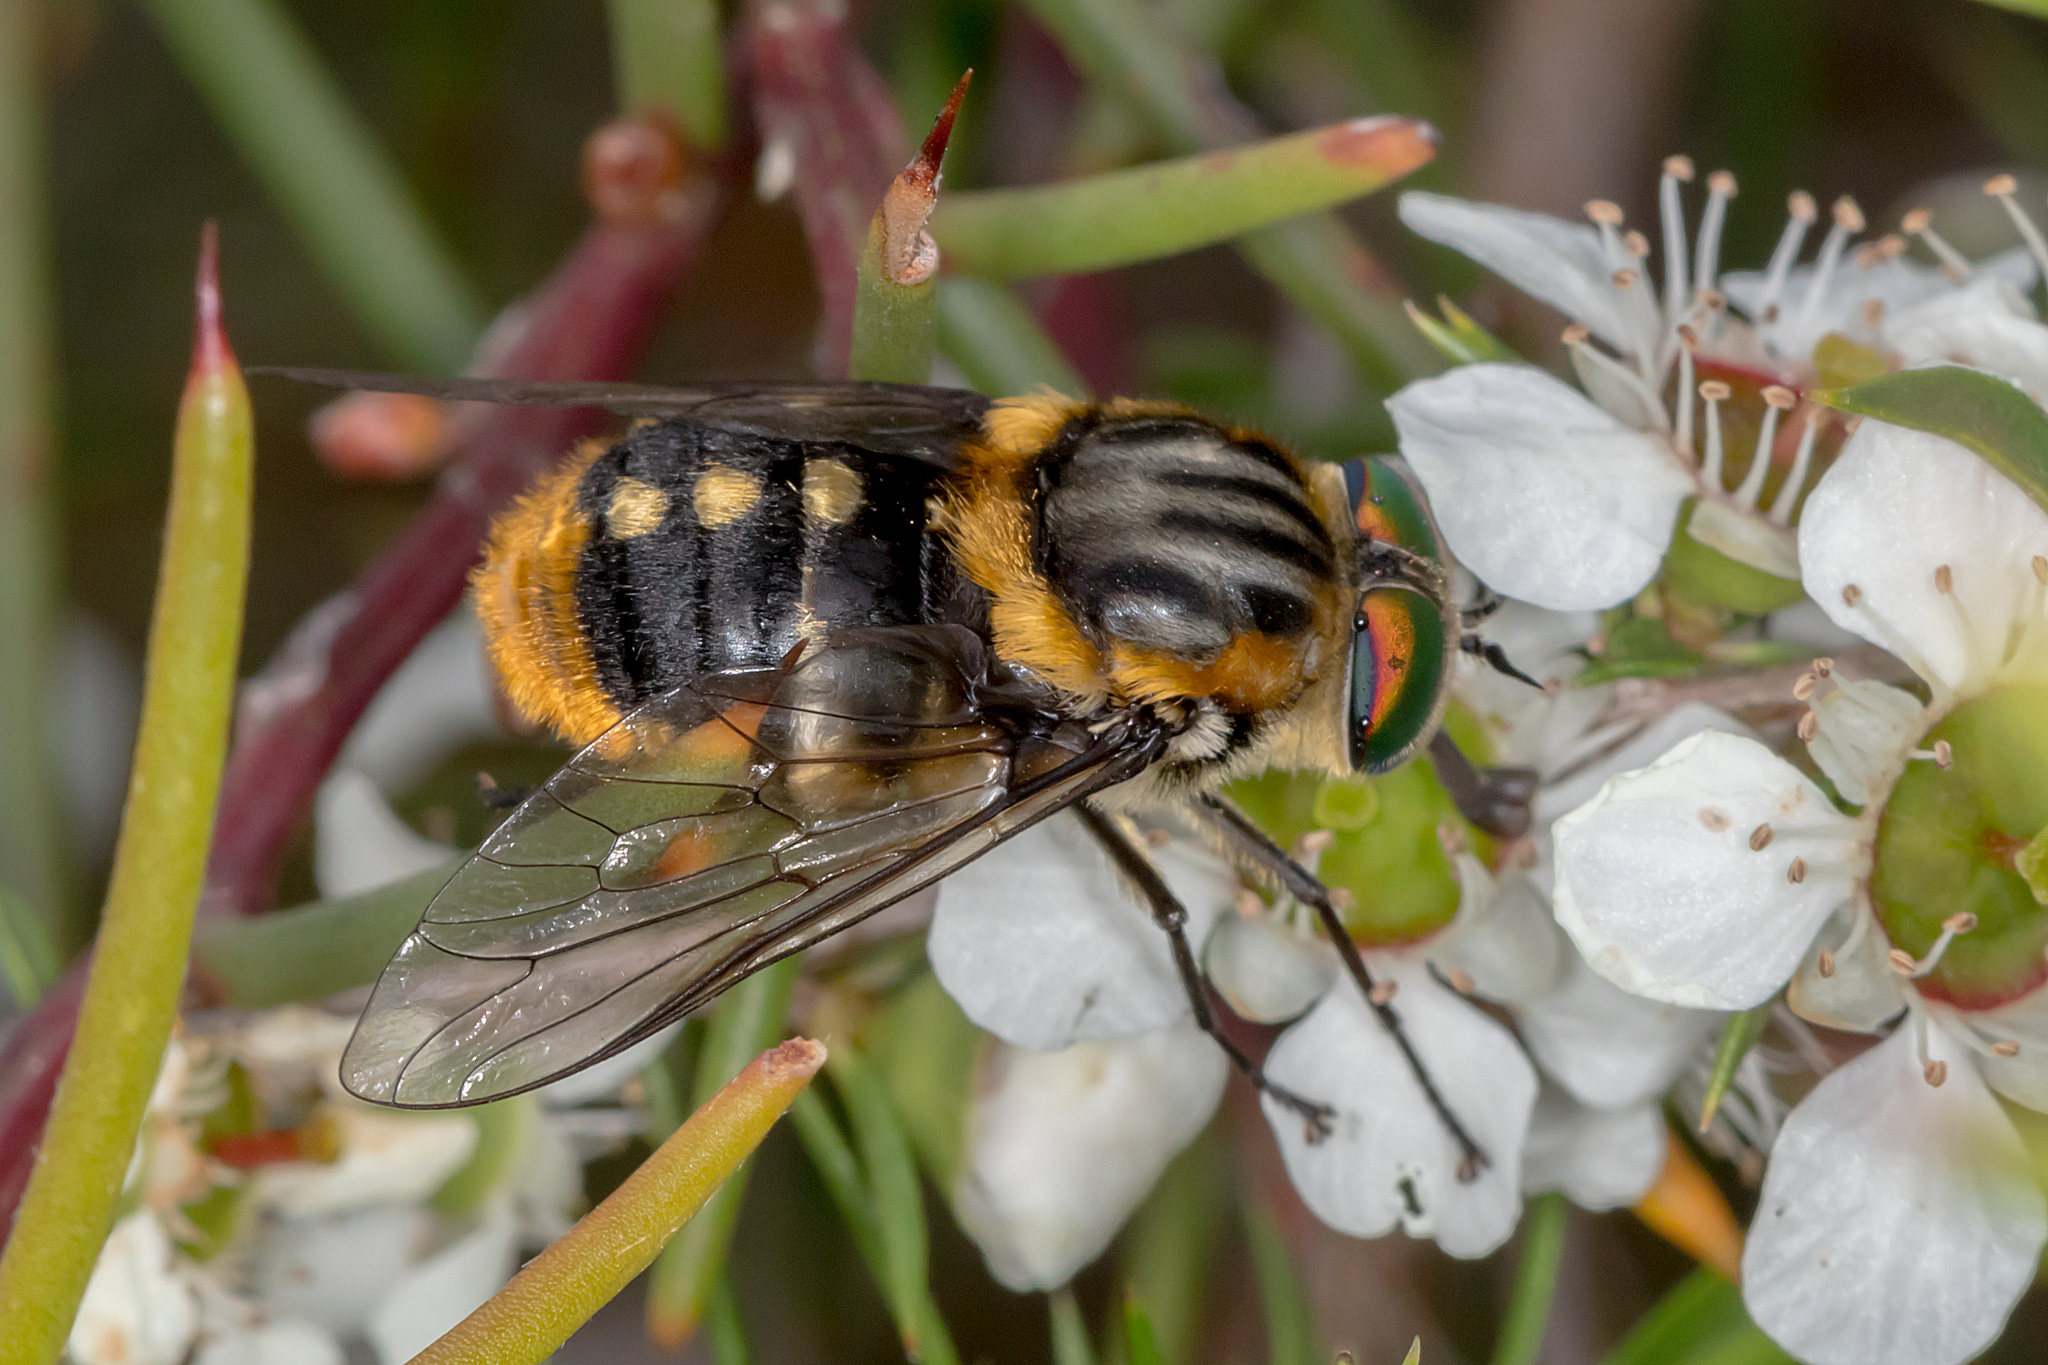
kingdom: Animalia
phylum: Arthropoda
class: Insecta
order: Diptera
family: Tabanidae
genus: Scaptia
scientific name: Scaptia auriflua
